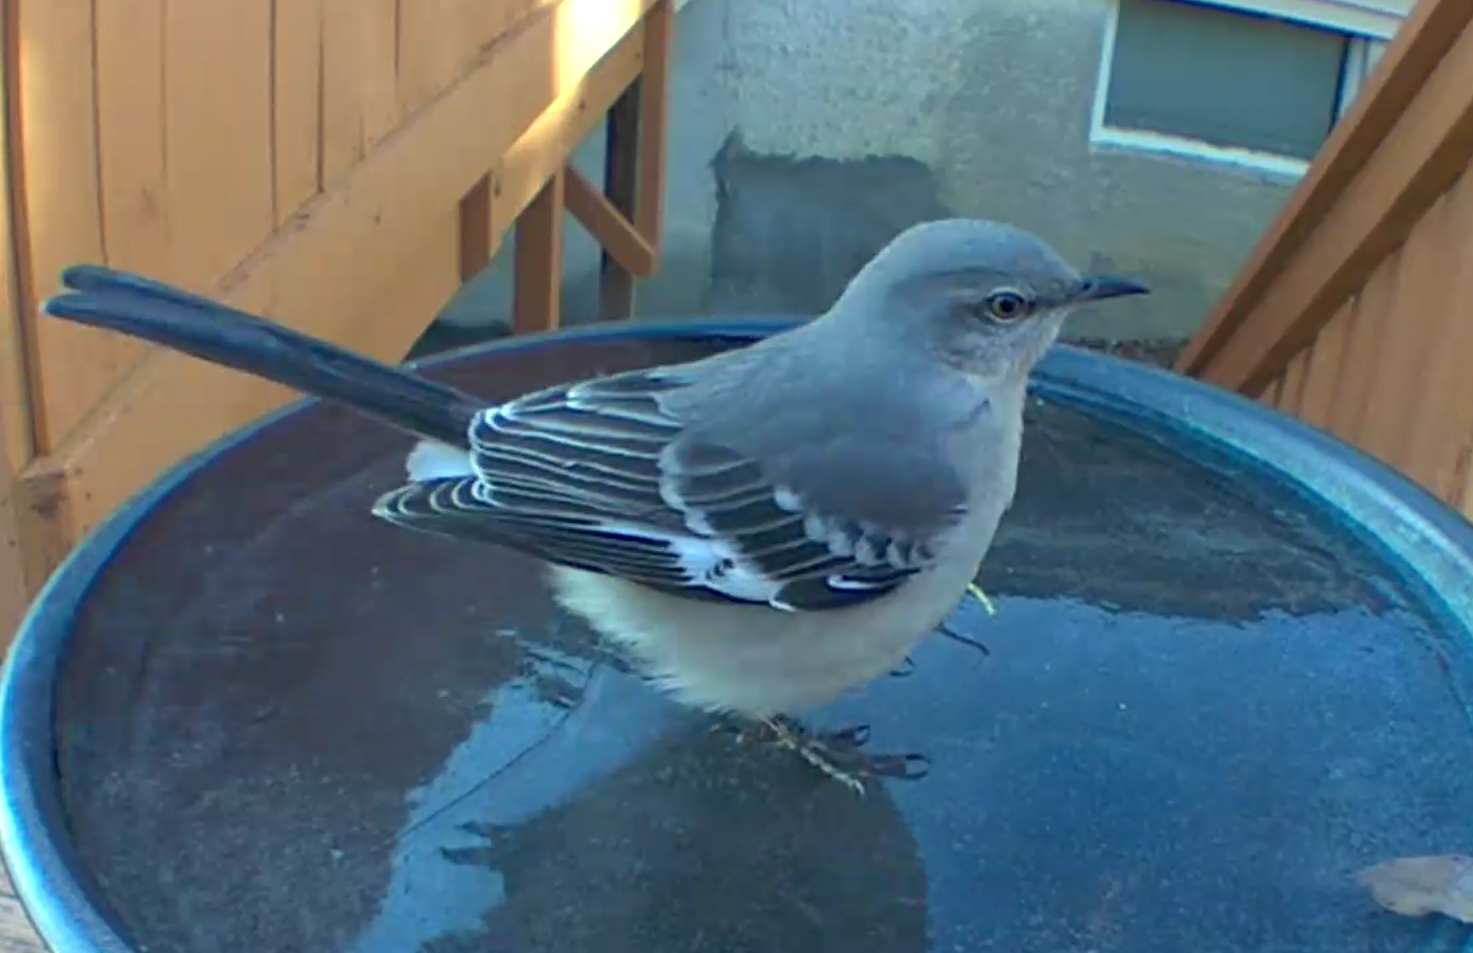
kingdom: Animalia
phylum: Chordata
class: Aves
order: Passeriformes
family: Mimidae
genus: Mimus
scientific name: Mimus polyglottos
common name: Northern mockingbird
